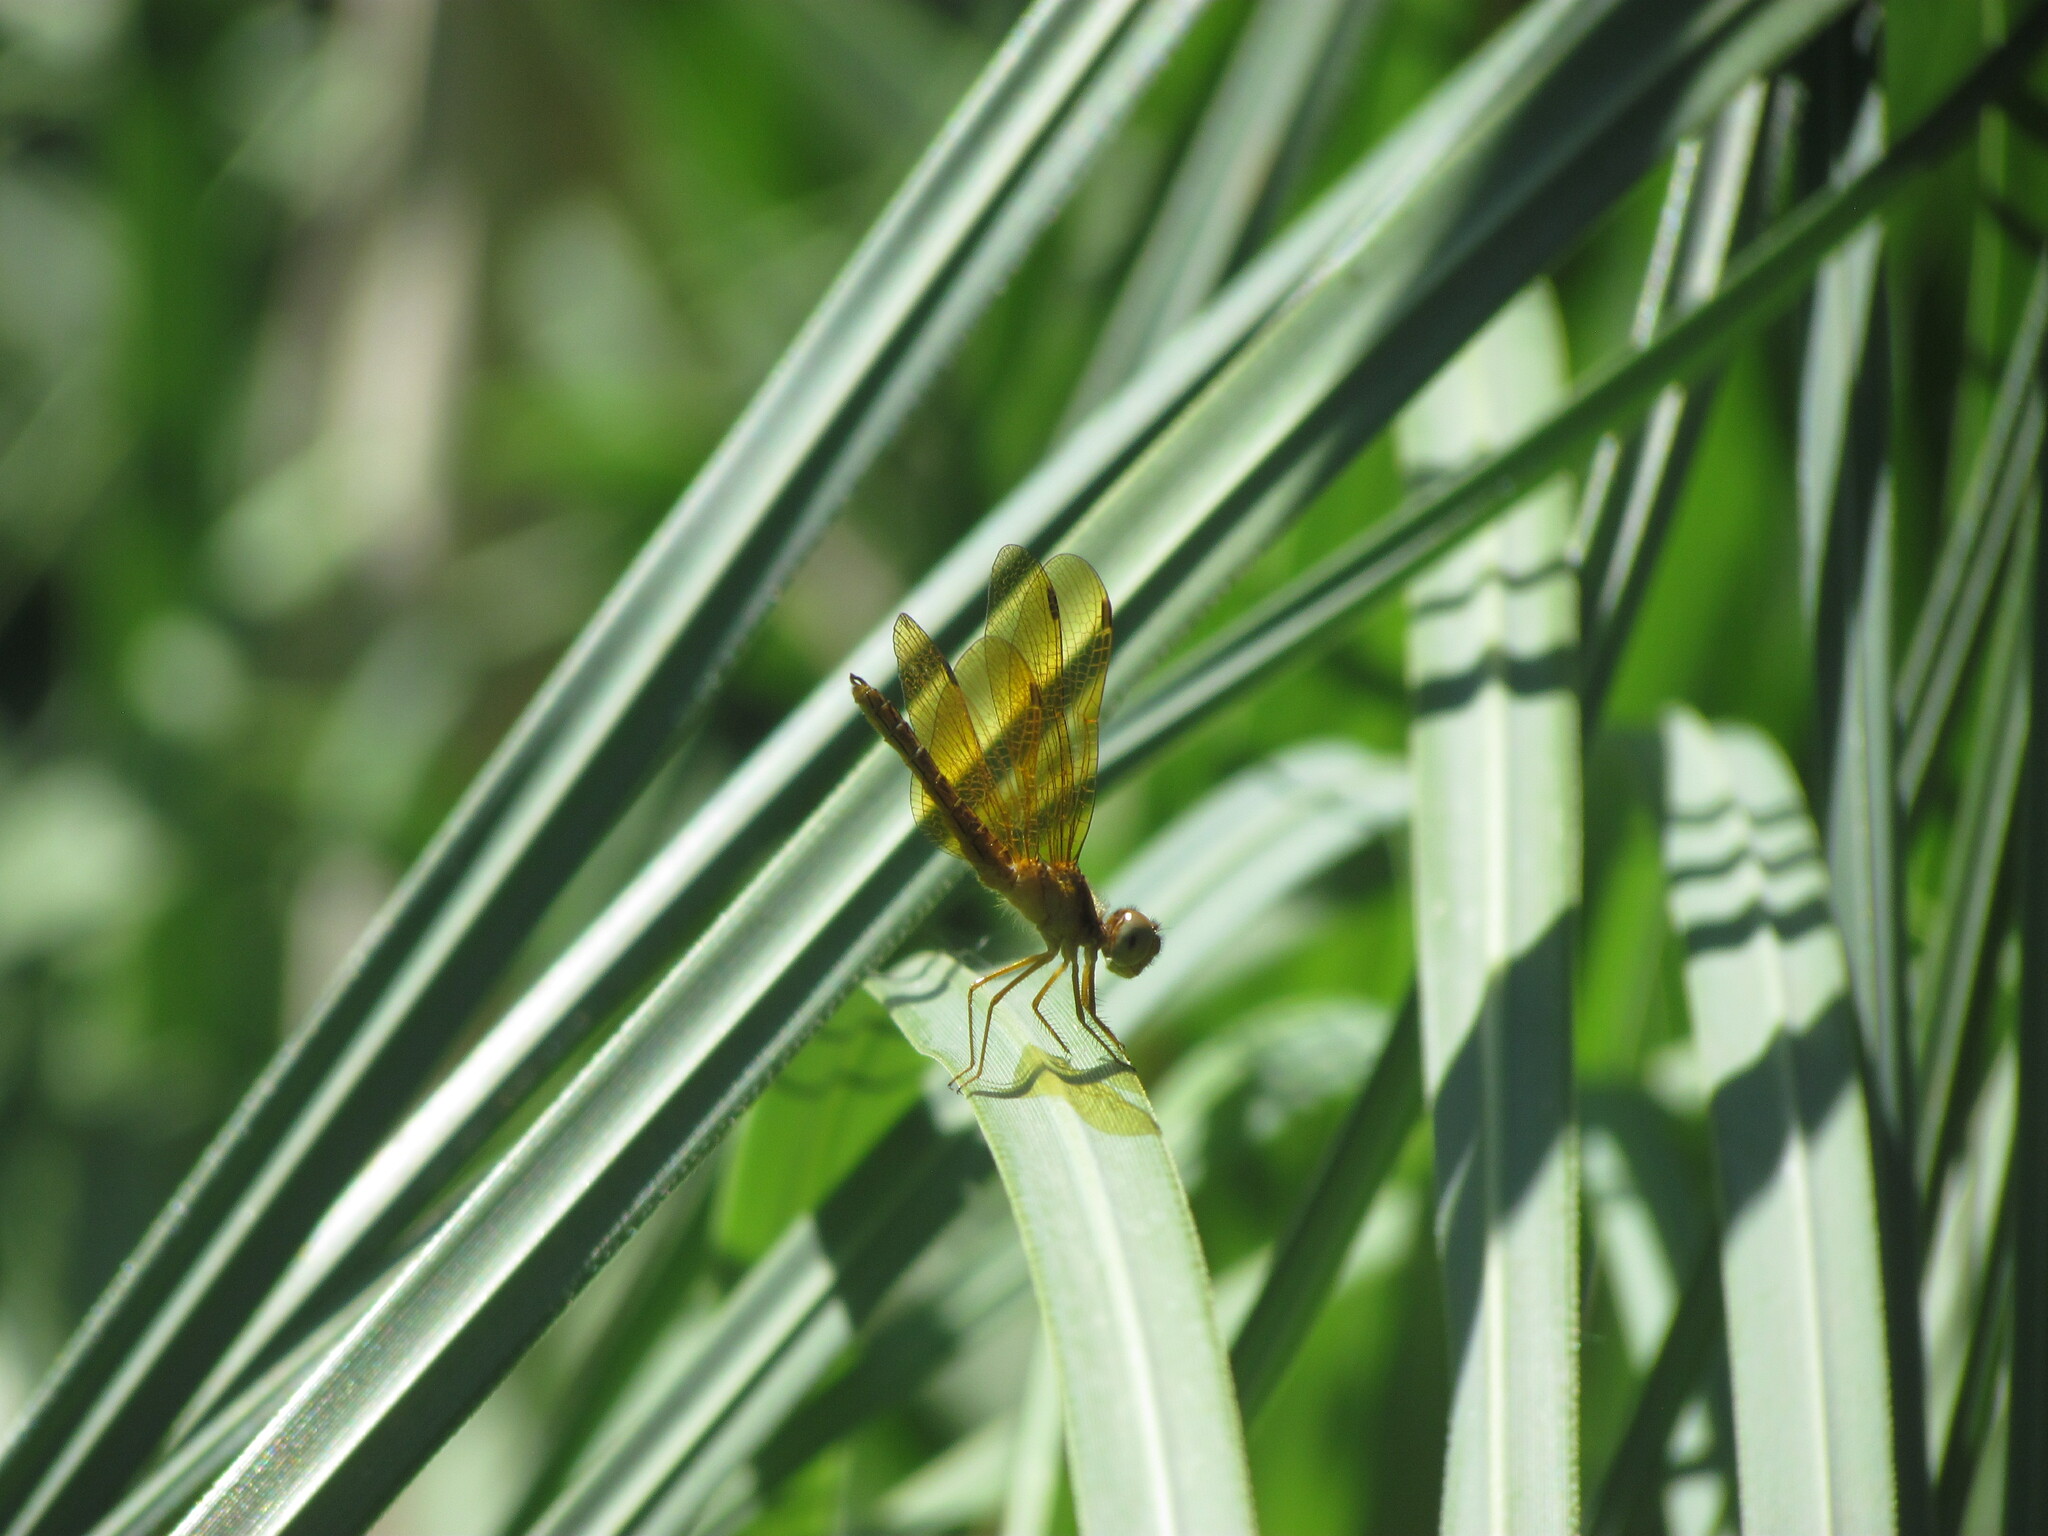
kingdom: Animalia
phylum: Arthropoda
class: Insecta
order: Odonata
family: Libellulidae
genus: Perithemis
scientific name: Perithemis icteroptera
